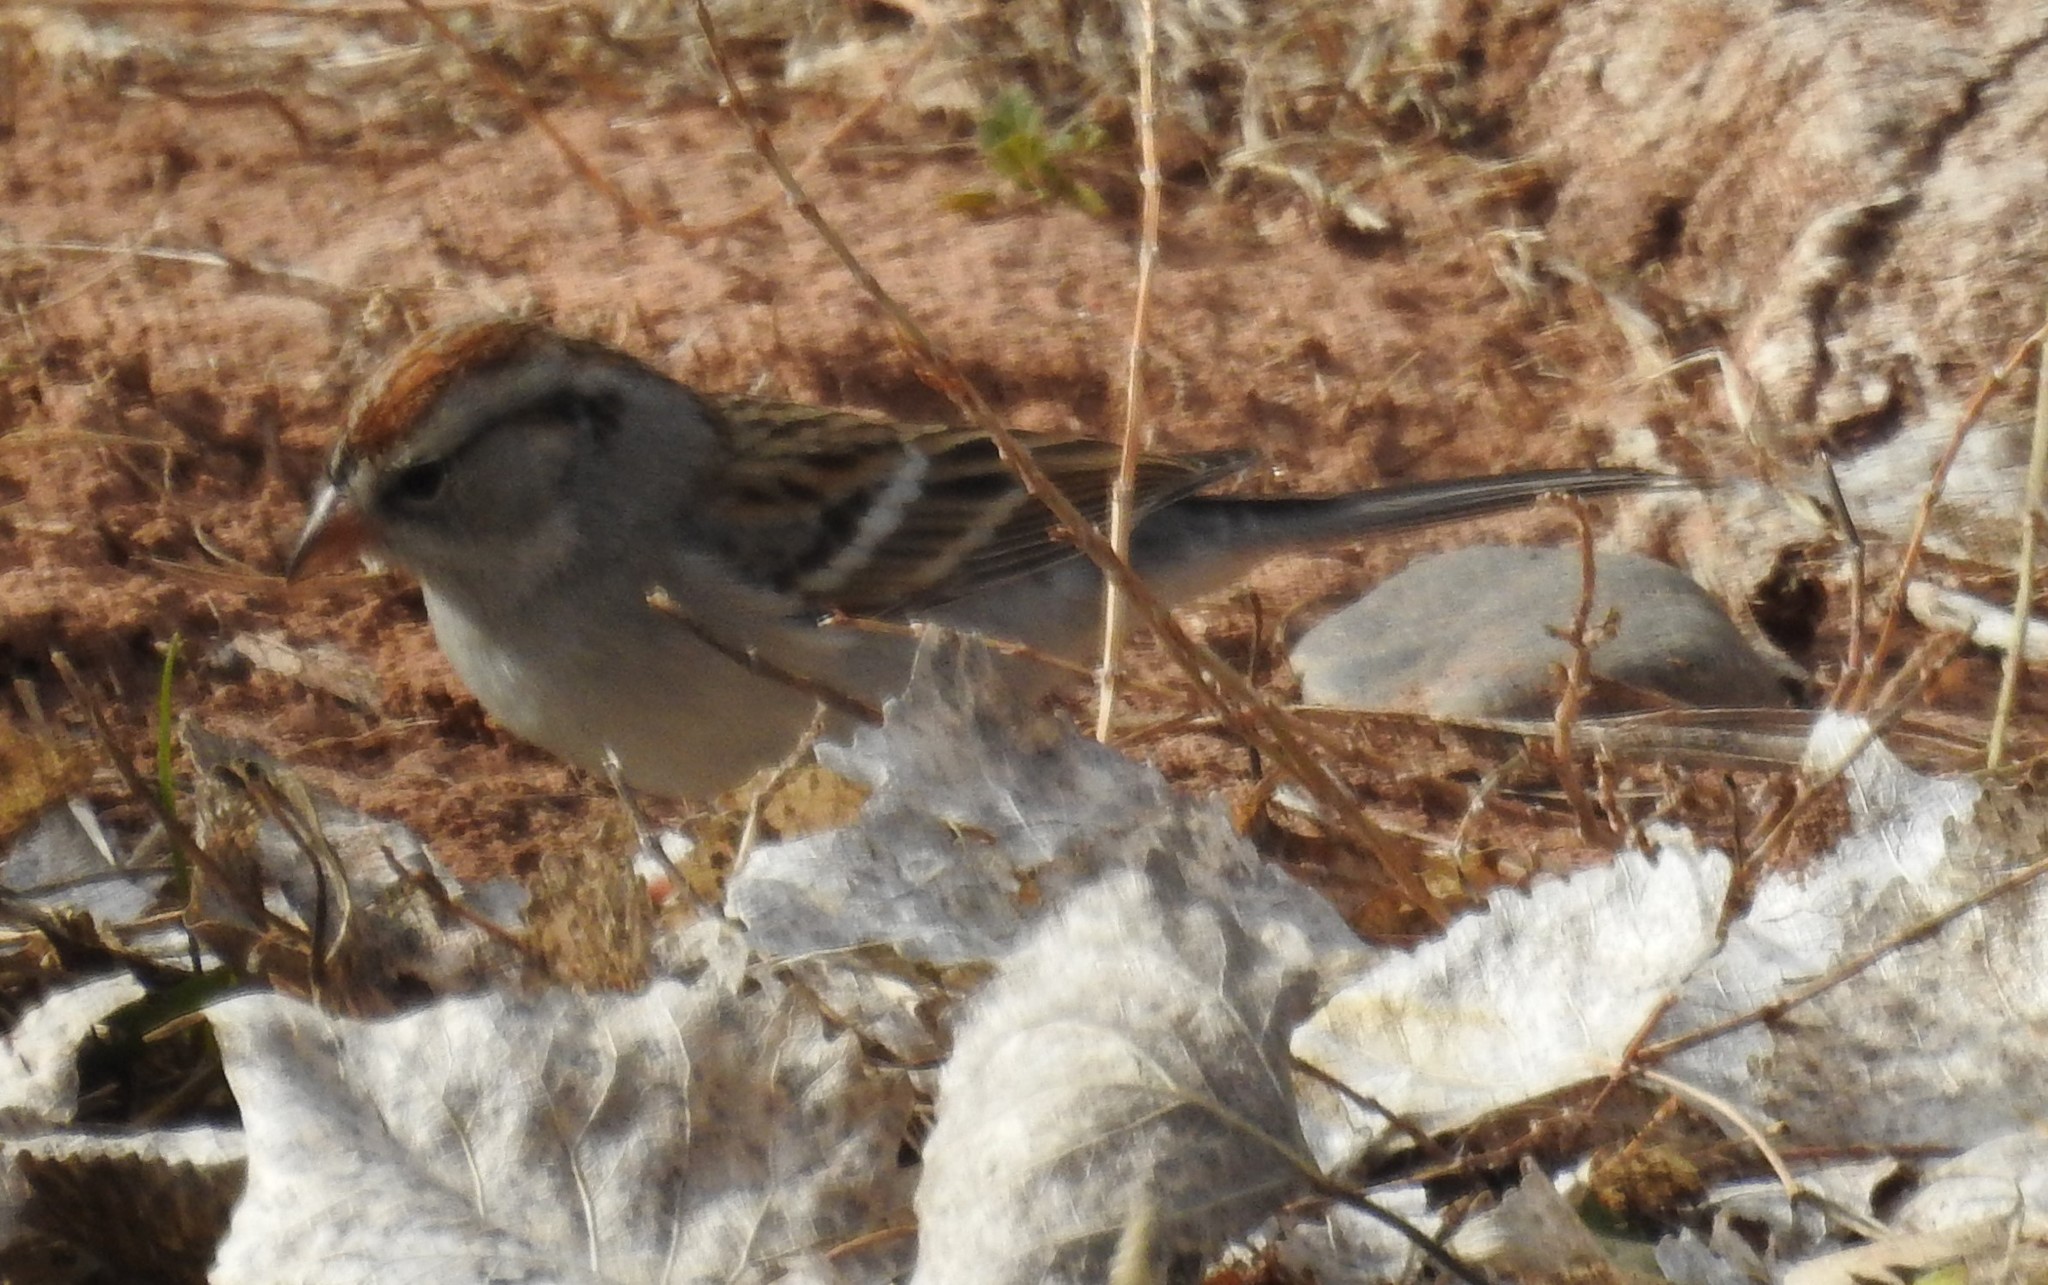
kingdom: Animalia
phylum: Chordata
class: Aves
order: Passeriformes
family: Passerellidae
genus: Spizella
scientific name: Spizella passerina
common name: Chipping sparrow
